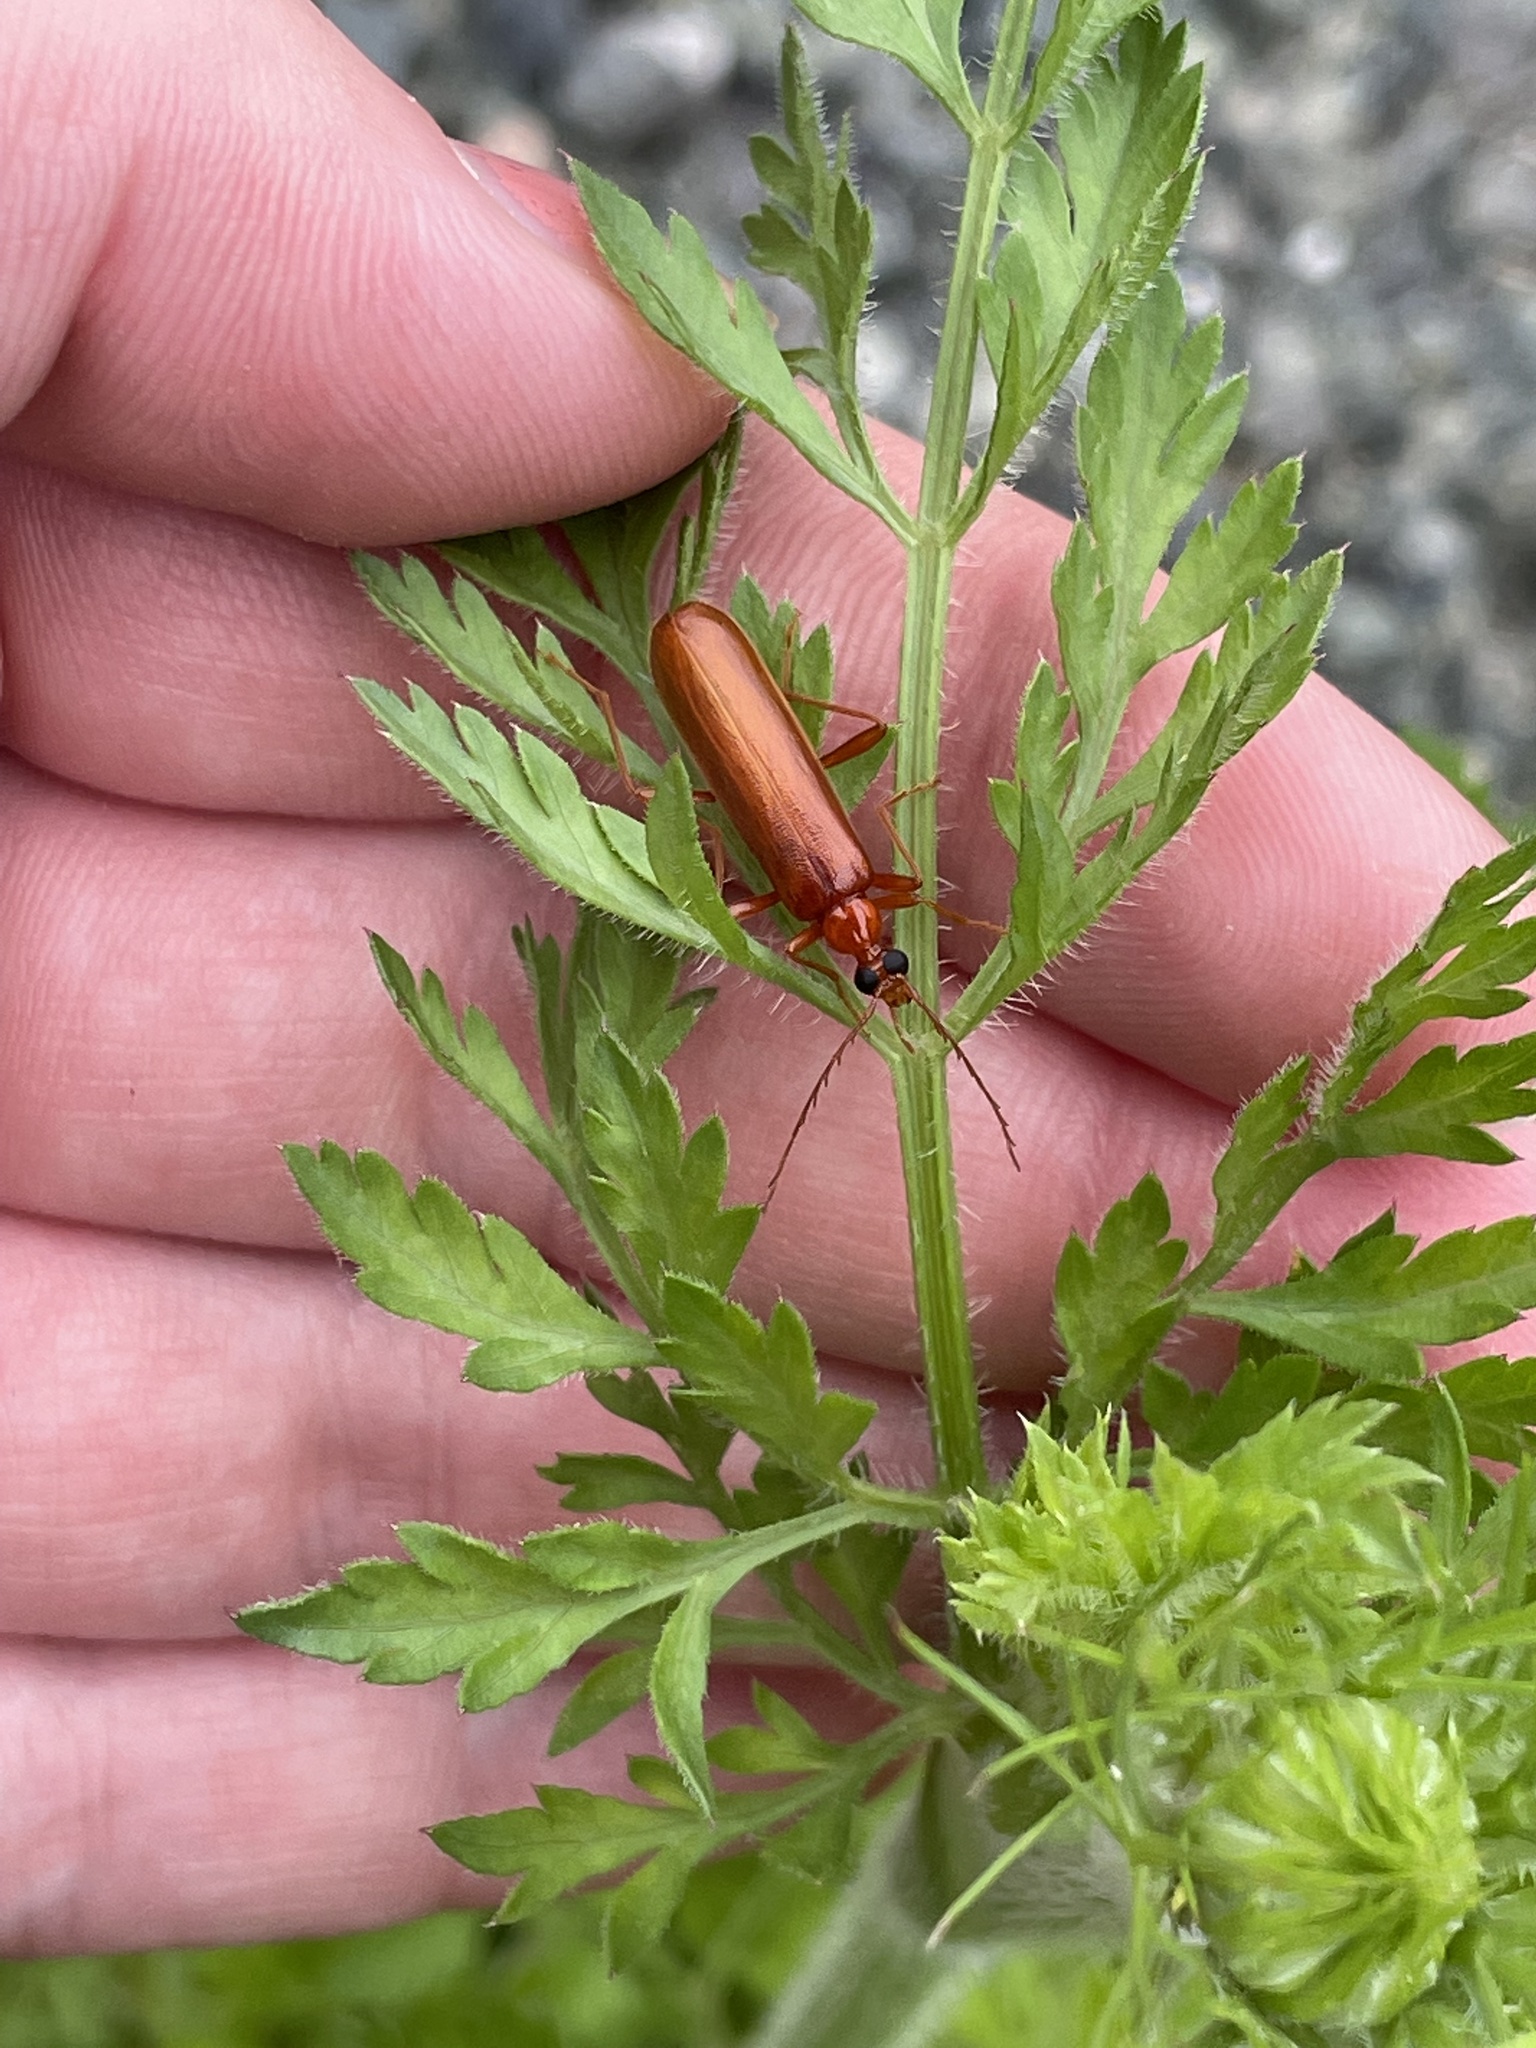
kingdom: Animalia
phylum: Arthropoda
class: Insecta
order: Coleoptera
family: Pyrochroidae
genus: Dendroides
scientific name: Dendroides concolor
